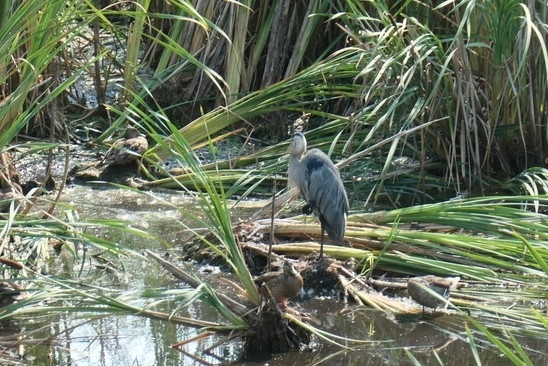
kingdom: Animalia
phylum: Chordata
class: Aves
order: Pelecaniformes
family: Ardeidae
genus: Ardea
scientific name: Ardea herodias
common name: Great blue heron
